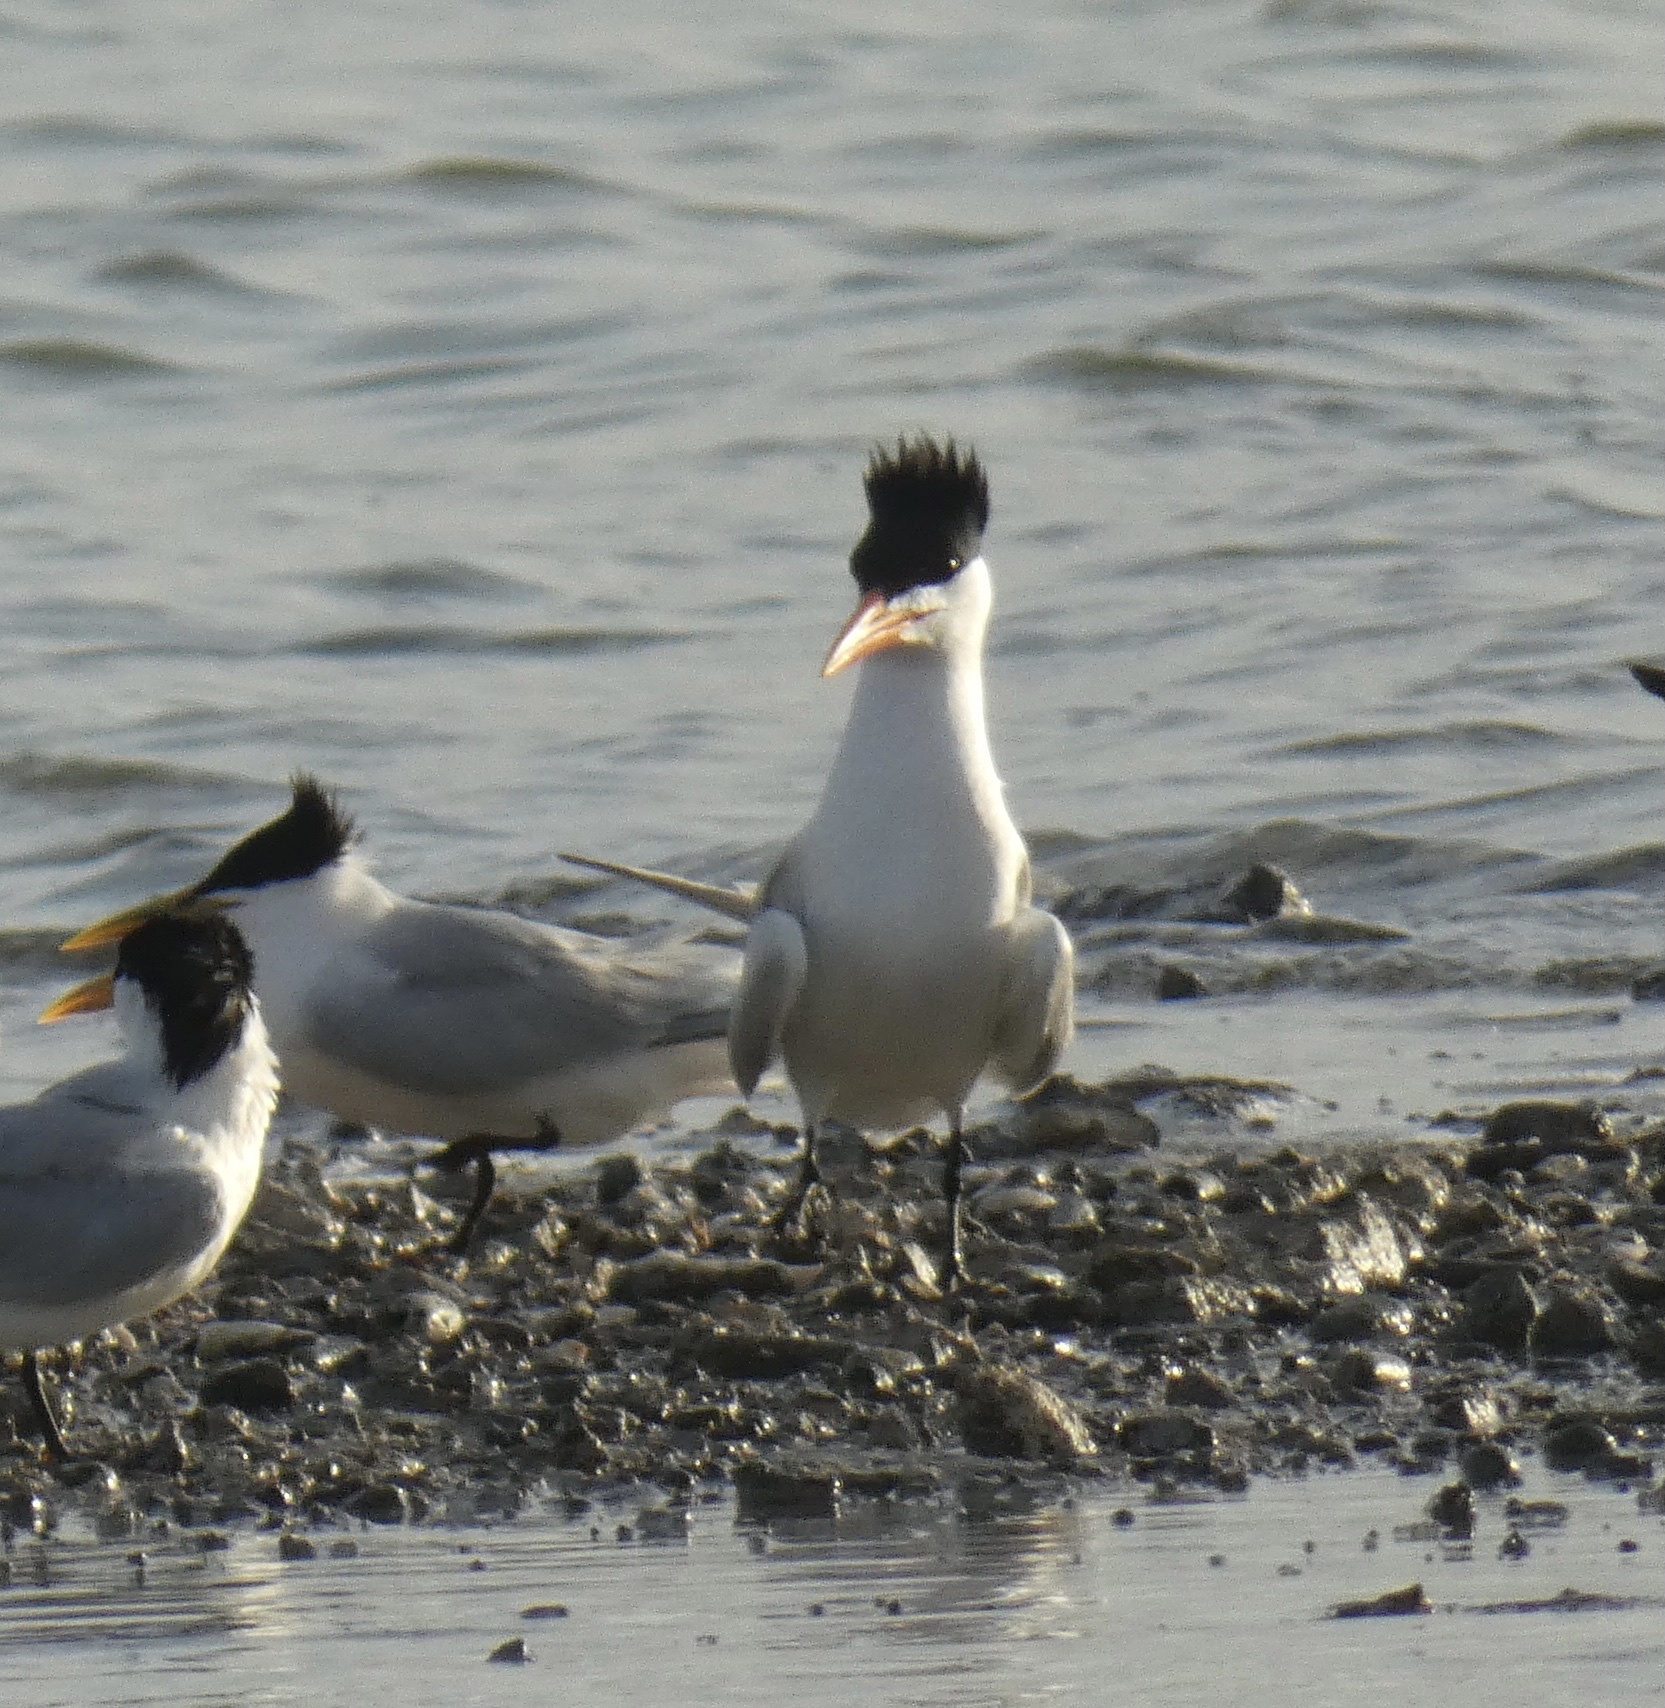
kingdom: Animalia
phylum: Chordata
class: Aves
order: Charadriiformes
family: Laridae
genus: Thalasseus
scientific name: Thalasseus sandvicensis
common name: Sandwich tern
